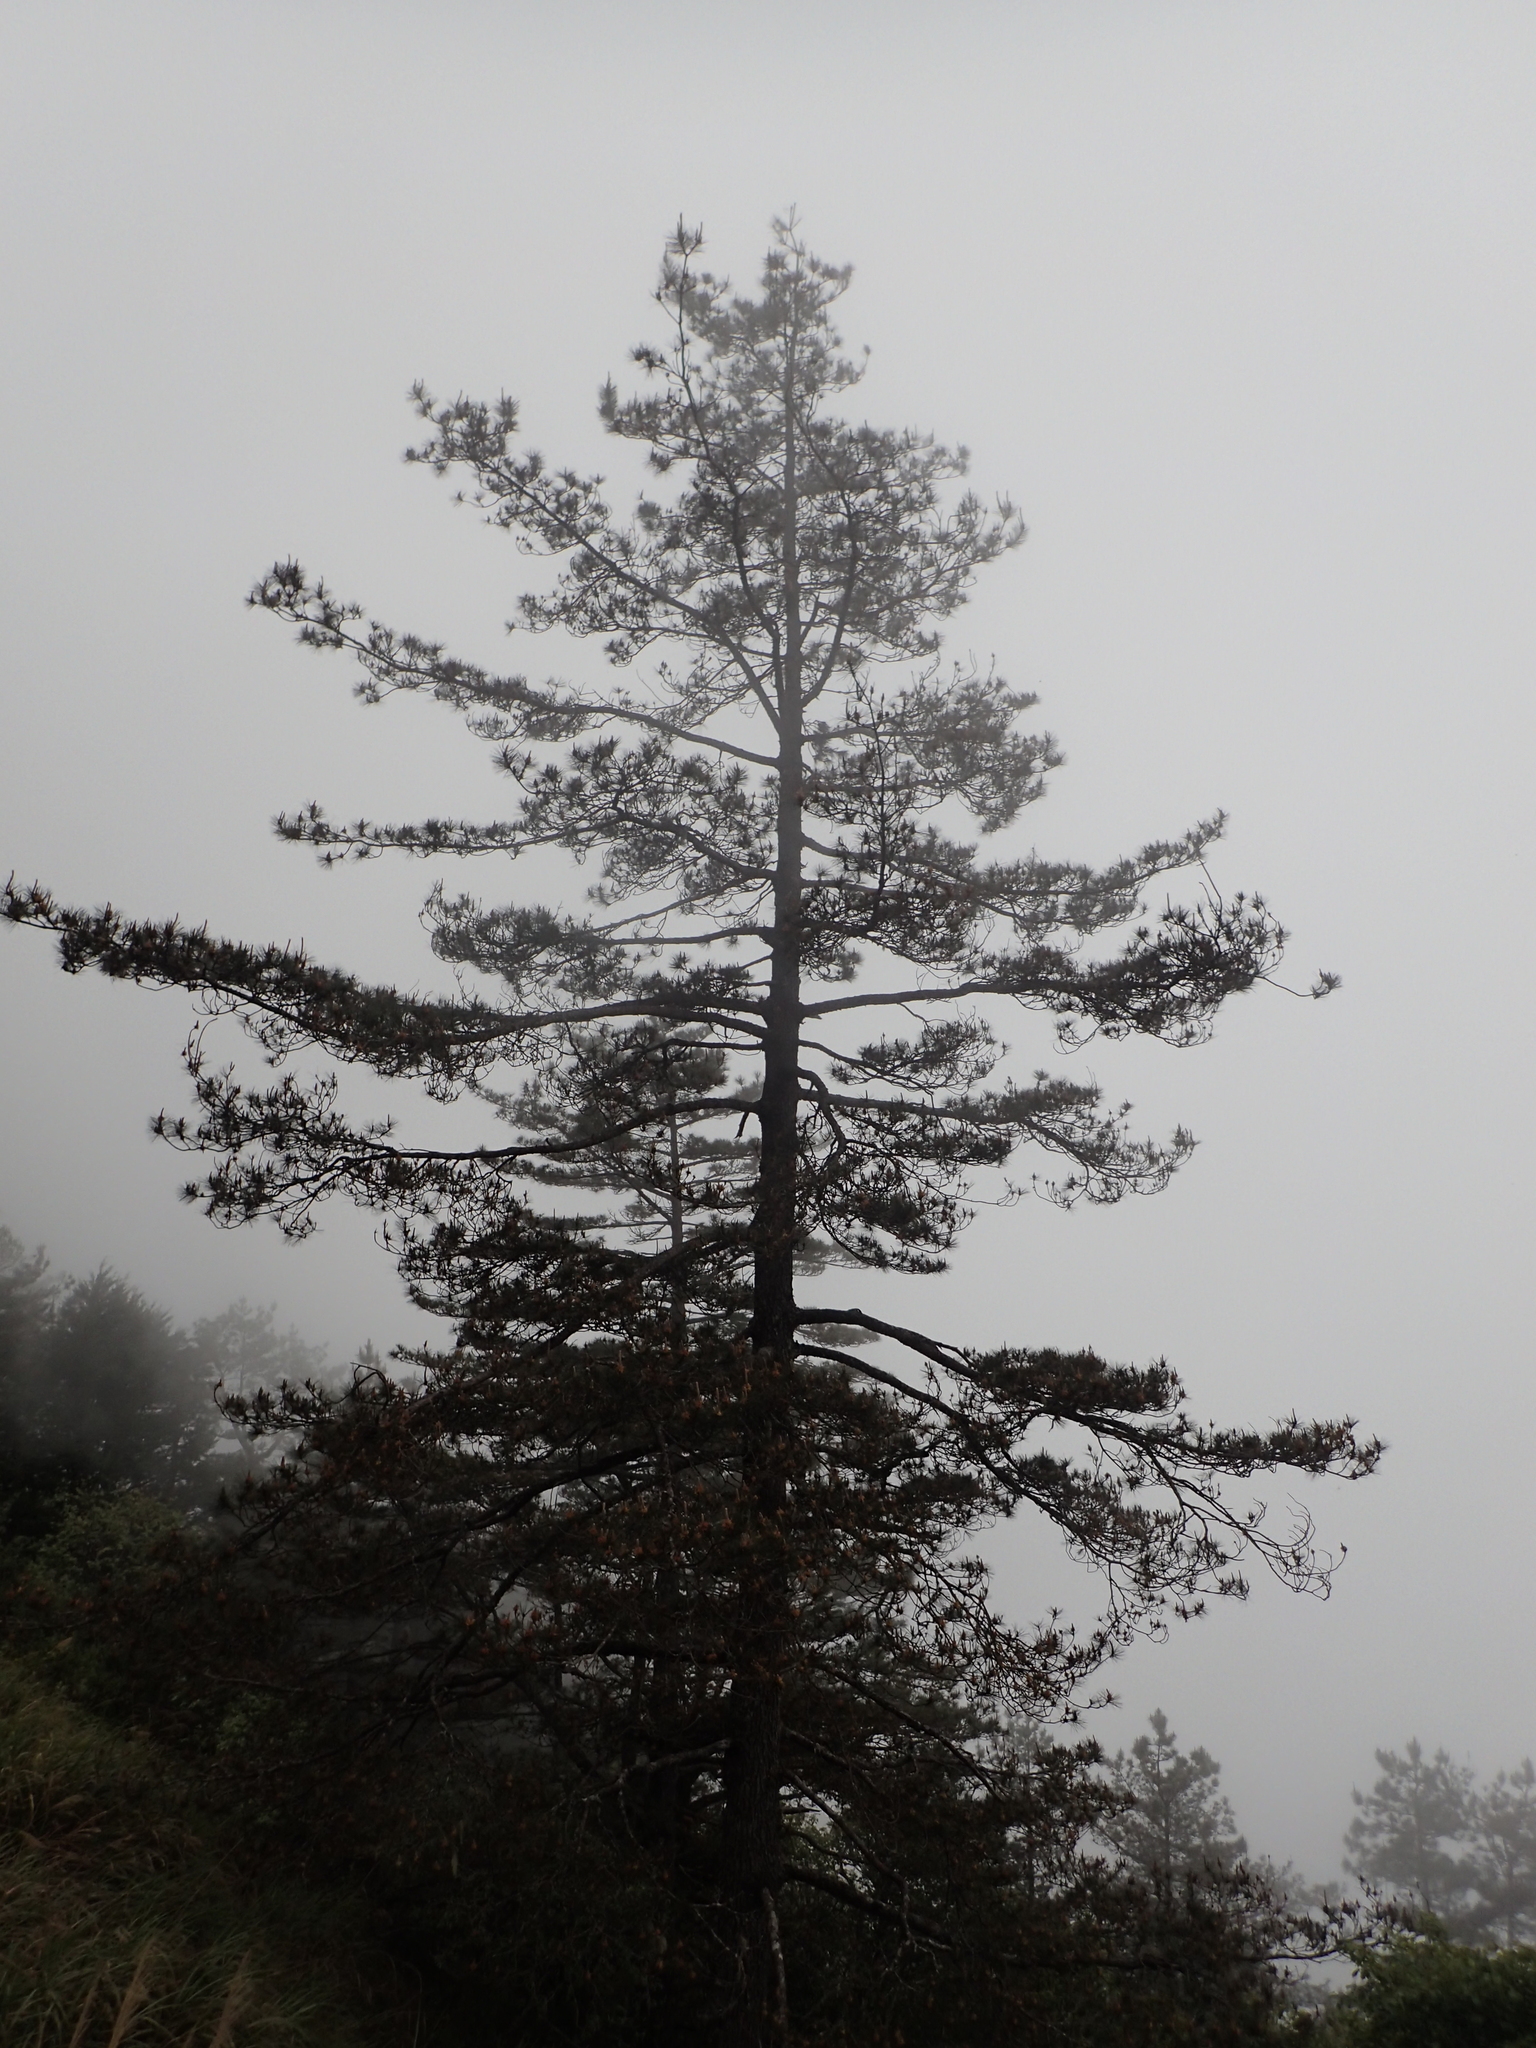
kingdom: Plantae
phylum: Tracheophyta
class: Pinopsida
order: Pinales
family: Pinaceae
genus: Pinus
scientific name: Pinus taiwanensis
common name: Formosa pine
